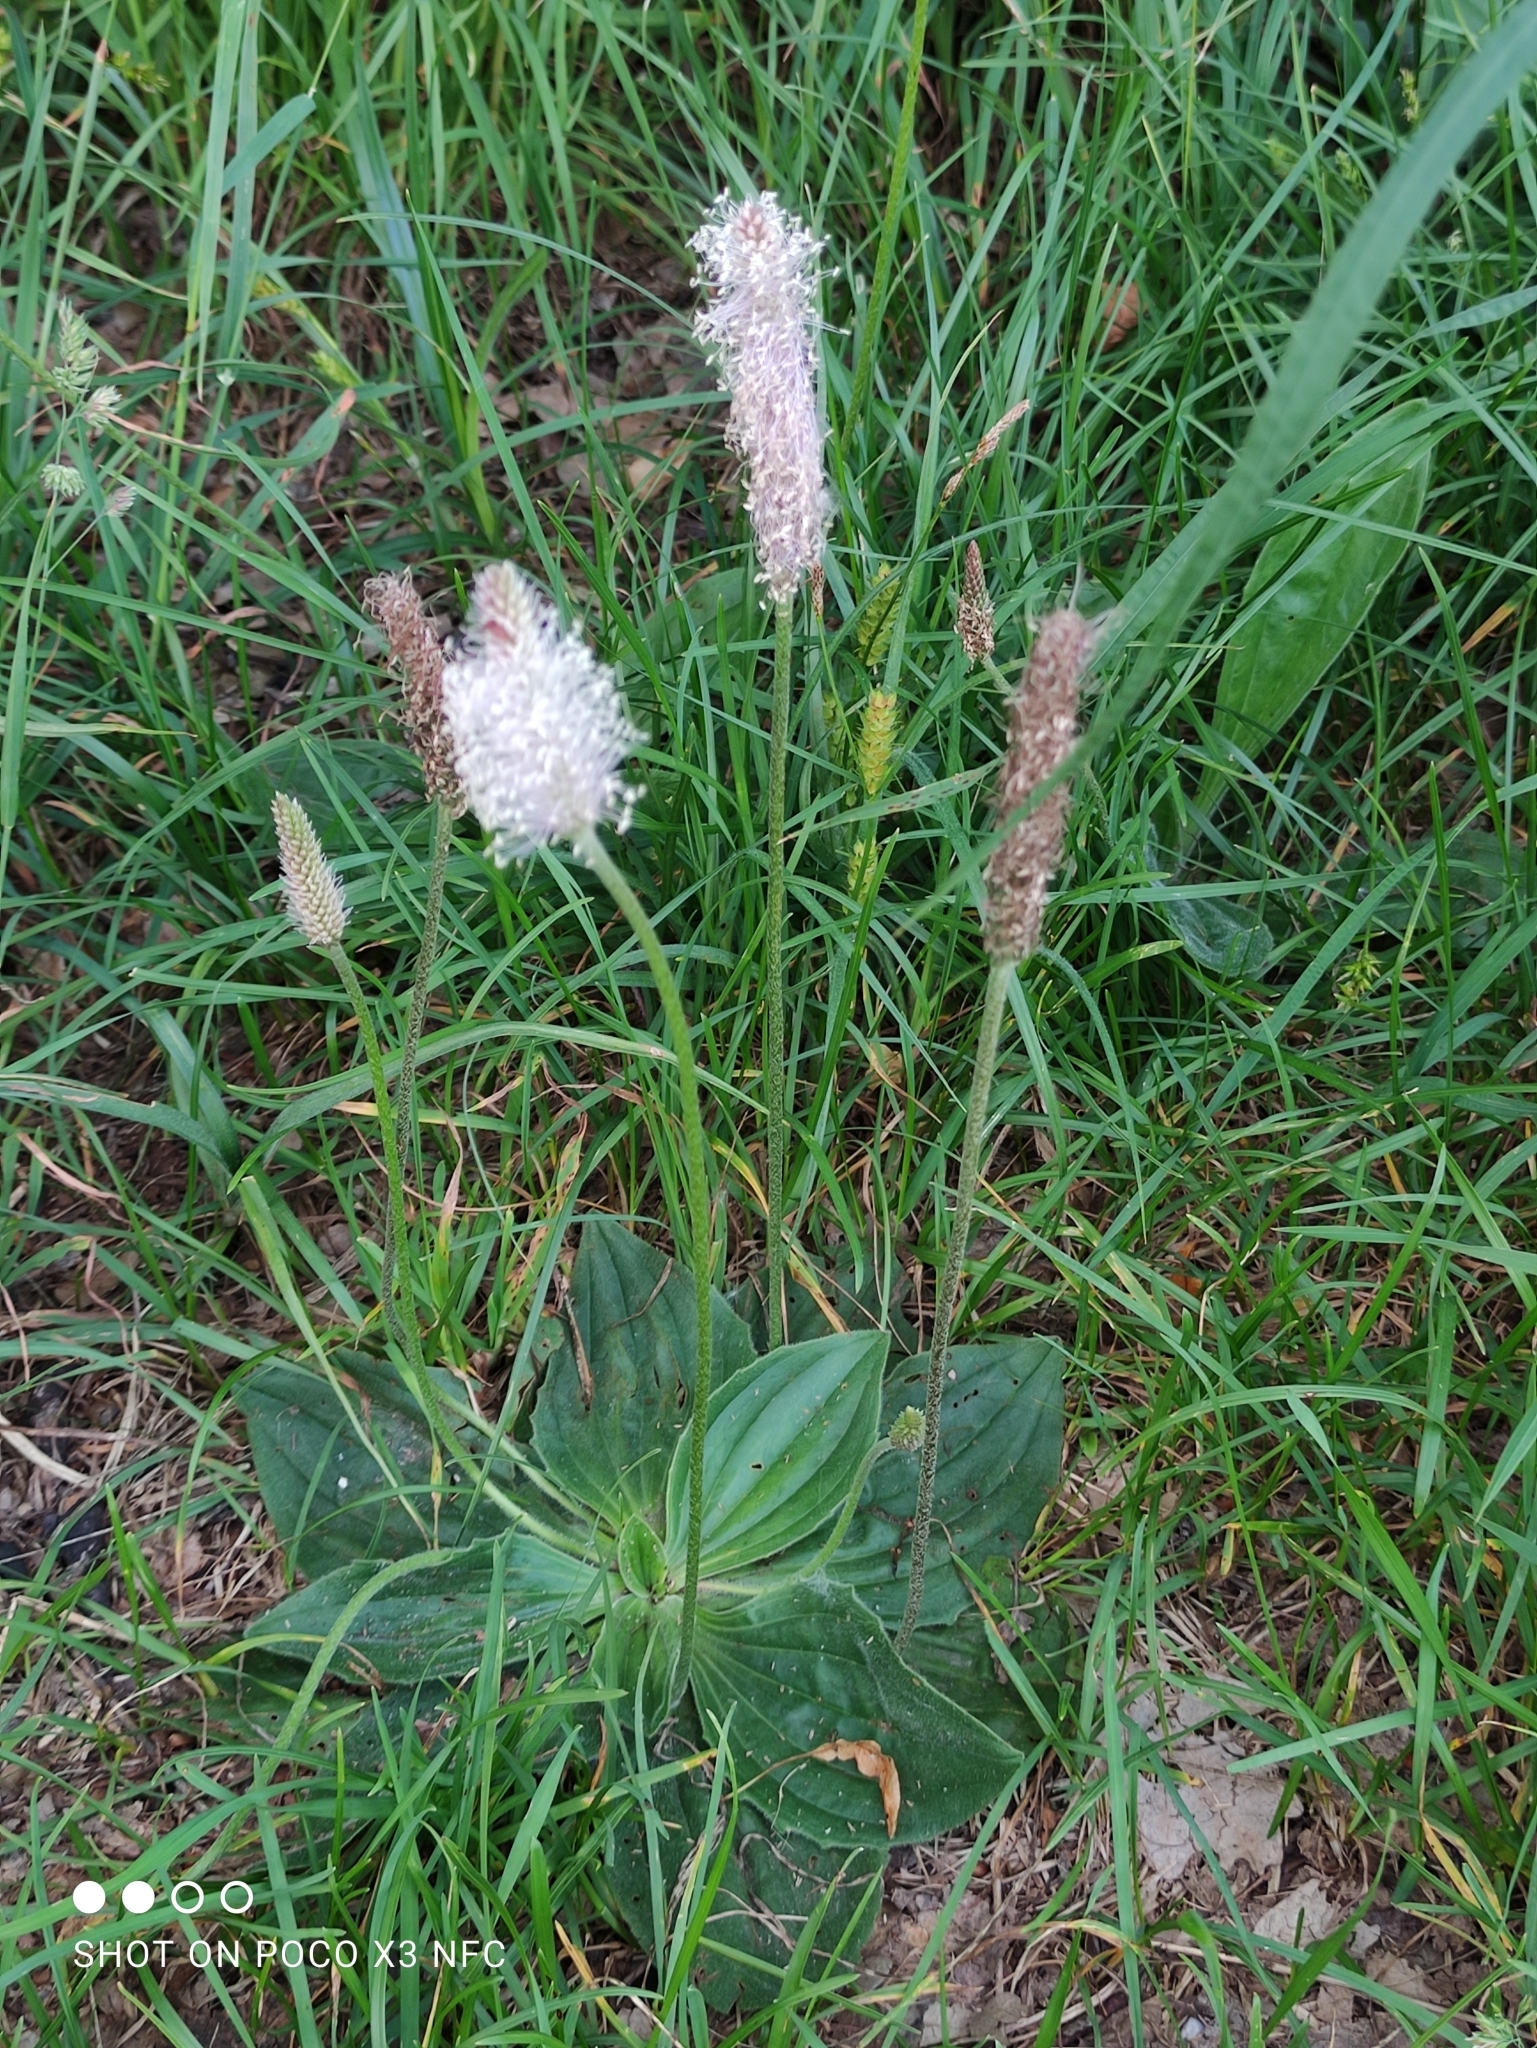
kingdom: Plantae
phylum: Tracheophyta
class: Magnoliopsida
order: Lamiales
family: Plantaginaceae
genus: Plantago
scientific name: Plantago media
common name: Hoary plantain
